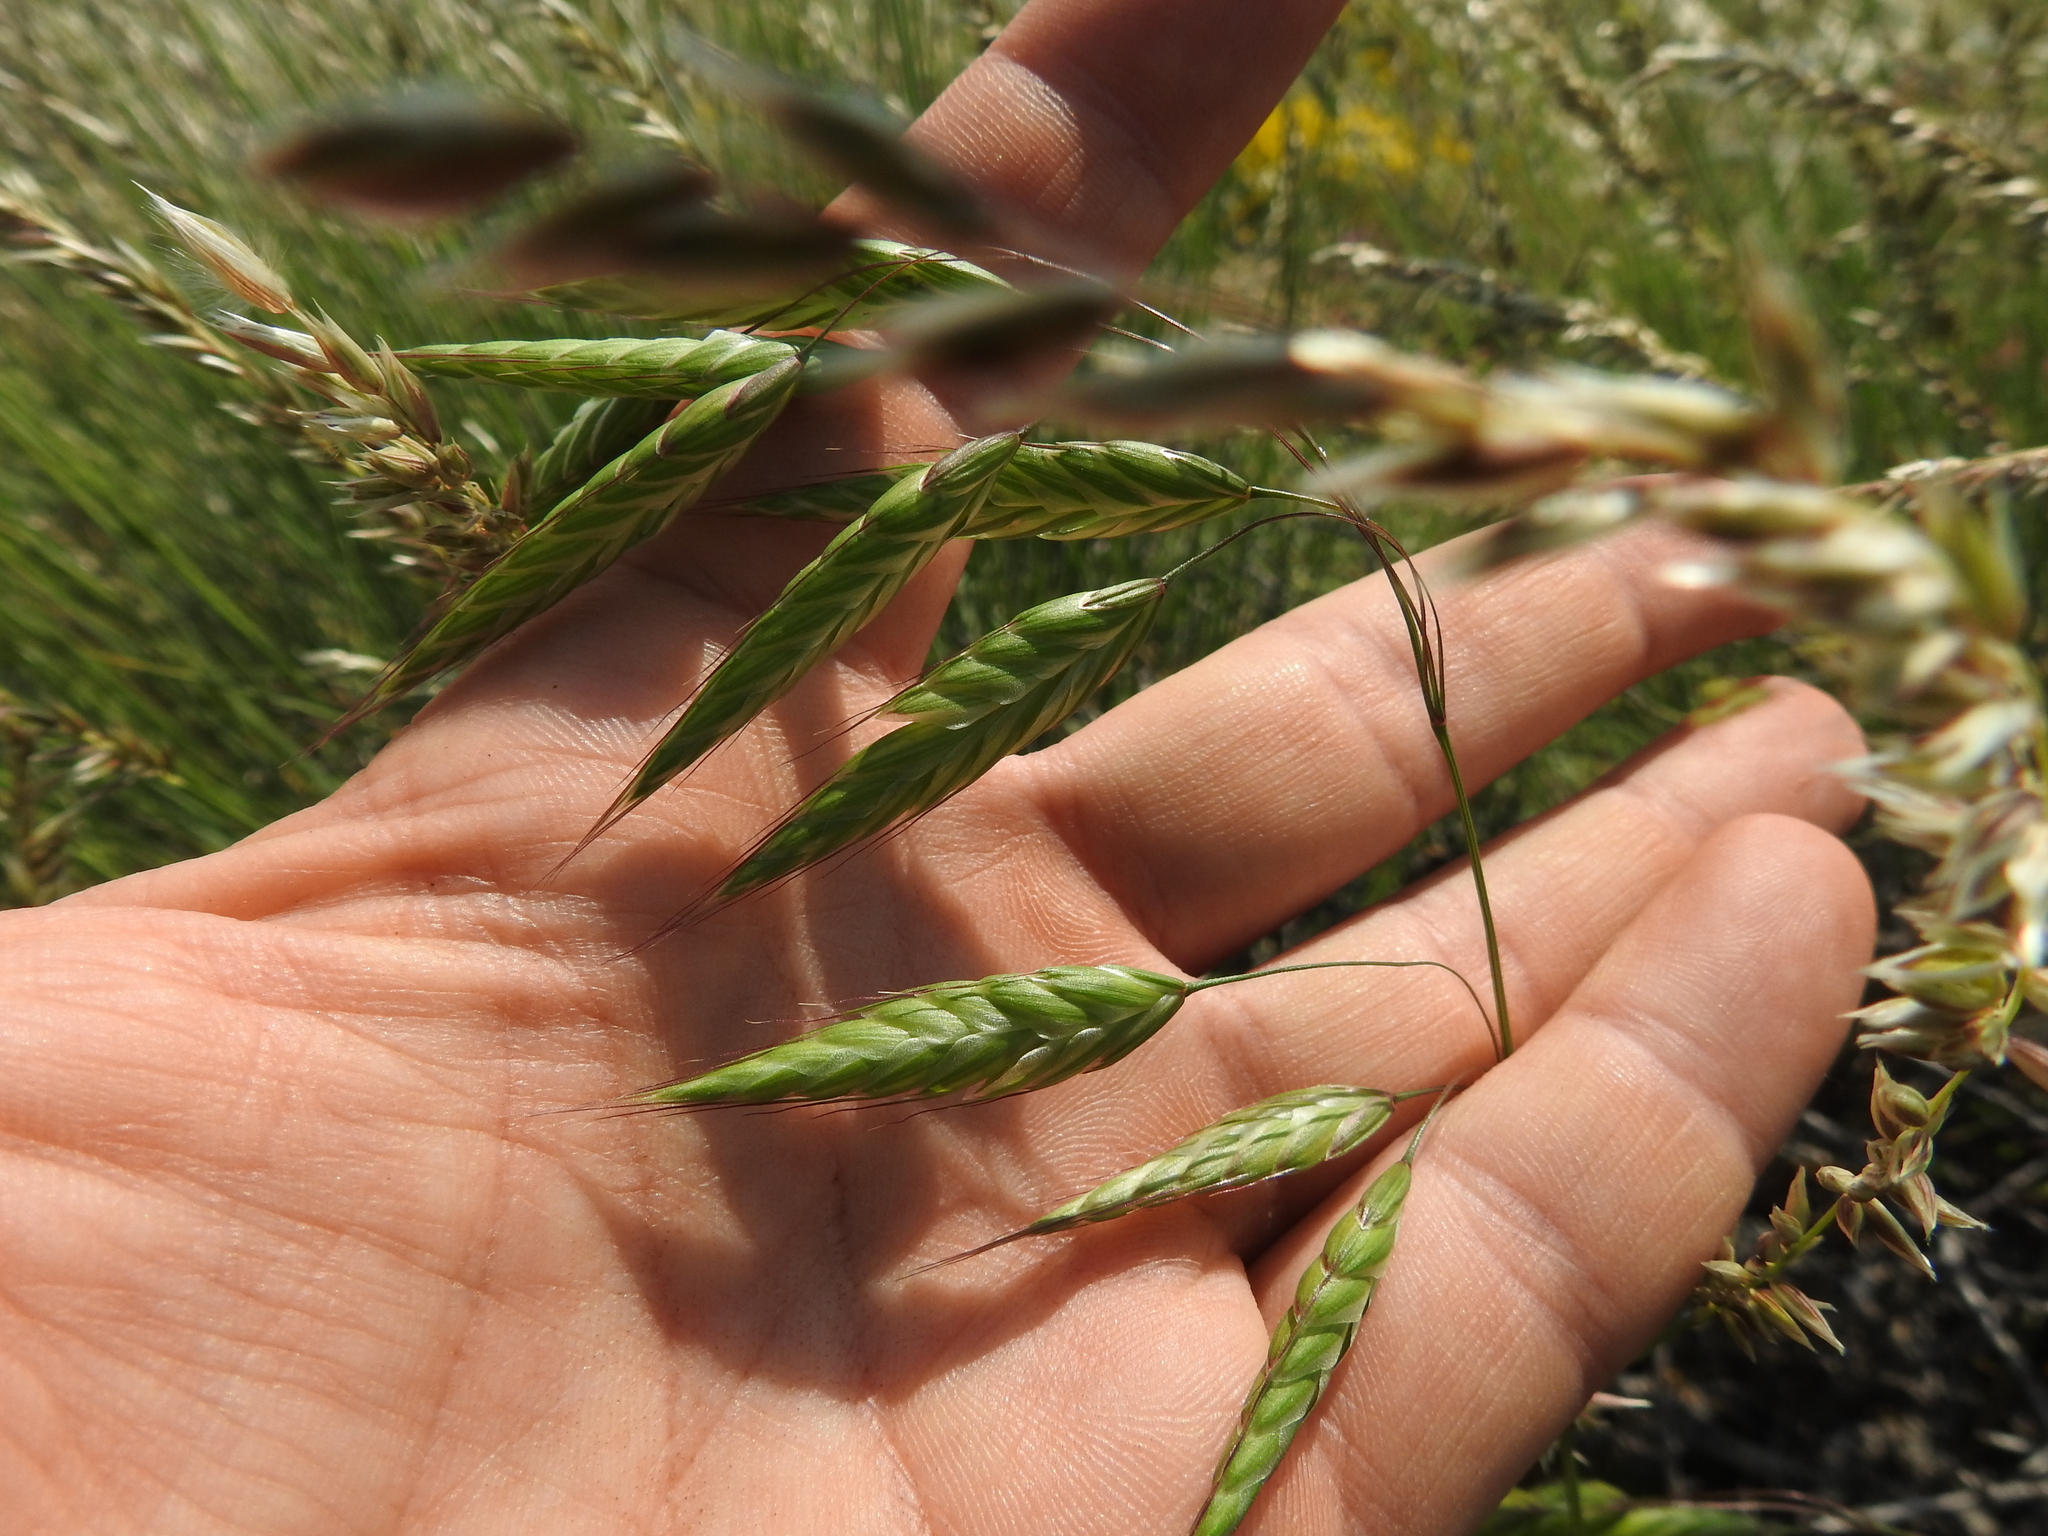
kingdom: Plantae
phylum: Tracheophyta
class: Liliopsida
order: Poales
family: Poaceae
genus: Bromus
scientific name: Bromus squarrosus
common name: Corn brome
